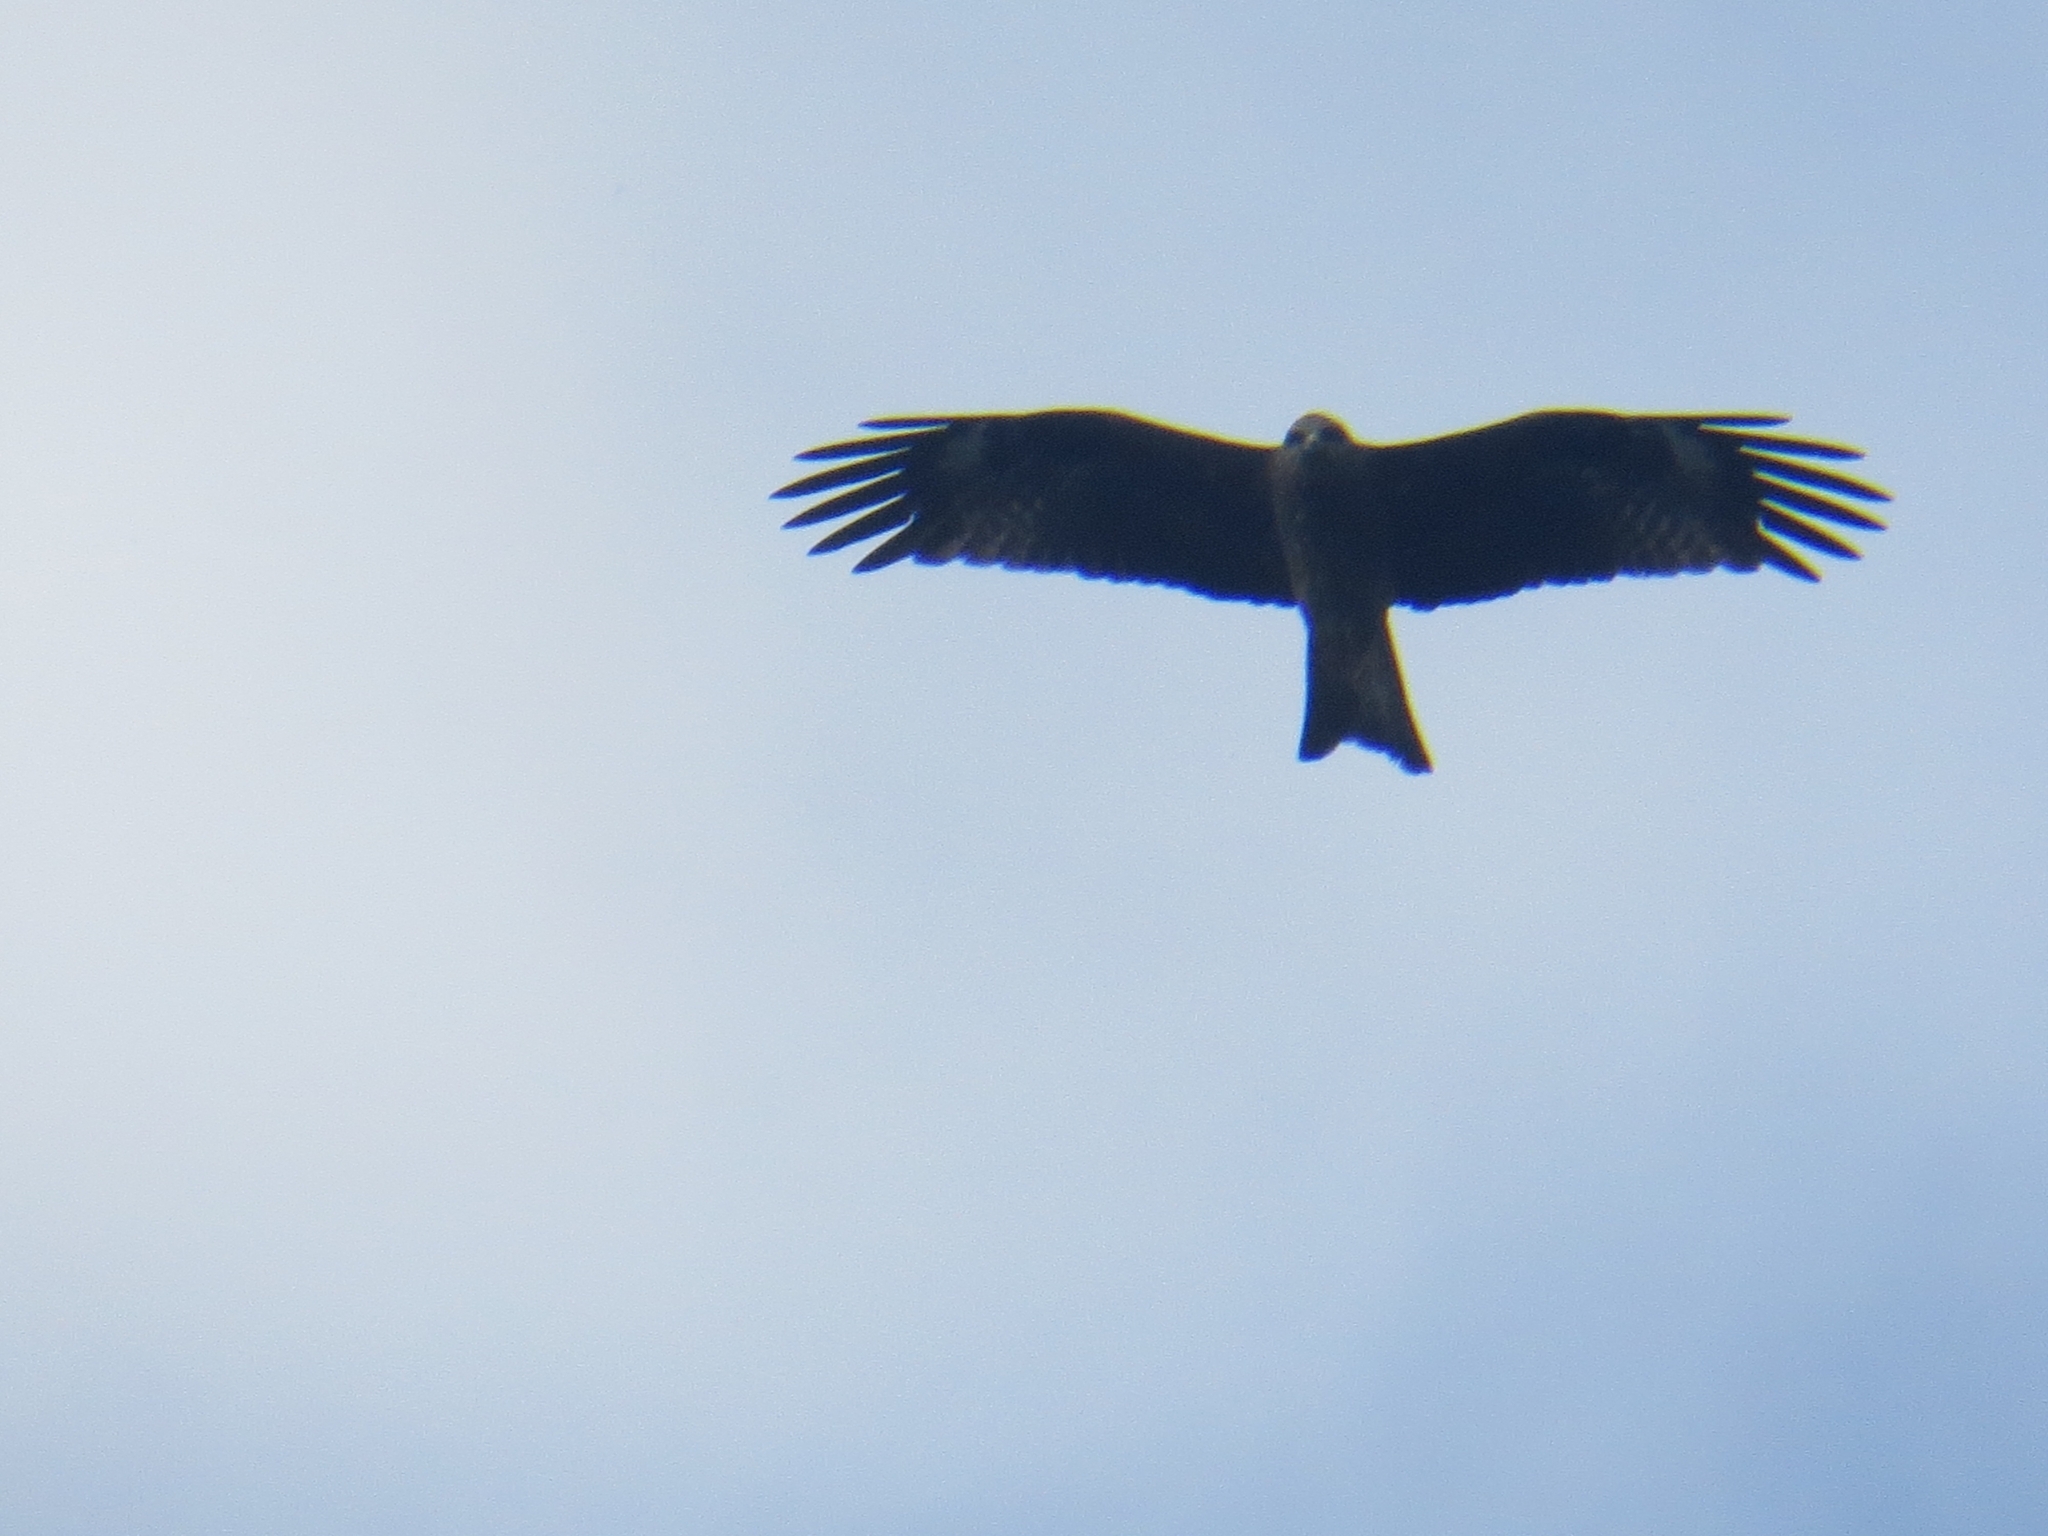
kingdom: Animalia
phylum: Chordata
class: Aves
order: Accipitriformes
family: Accipitridae
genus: Milvus
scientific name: Milvus migrans
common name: Black kite
